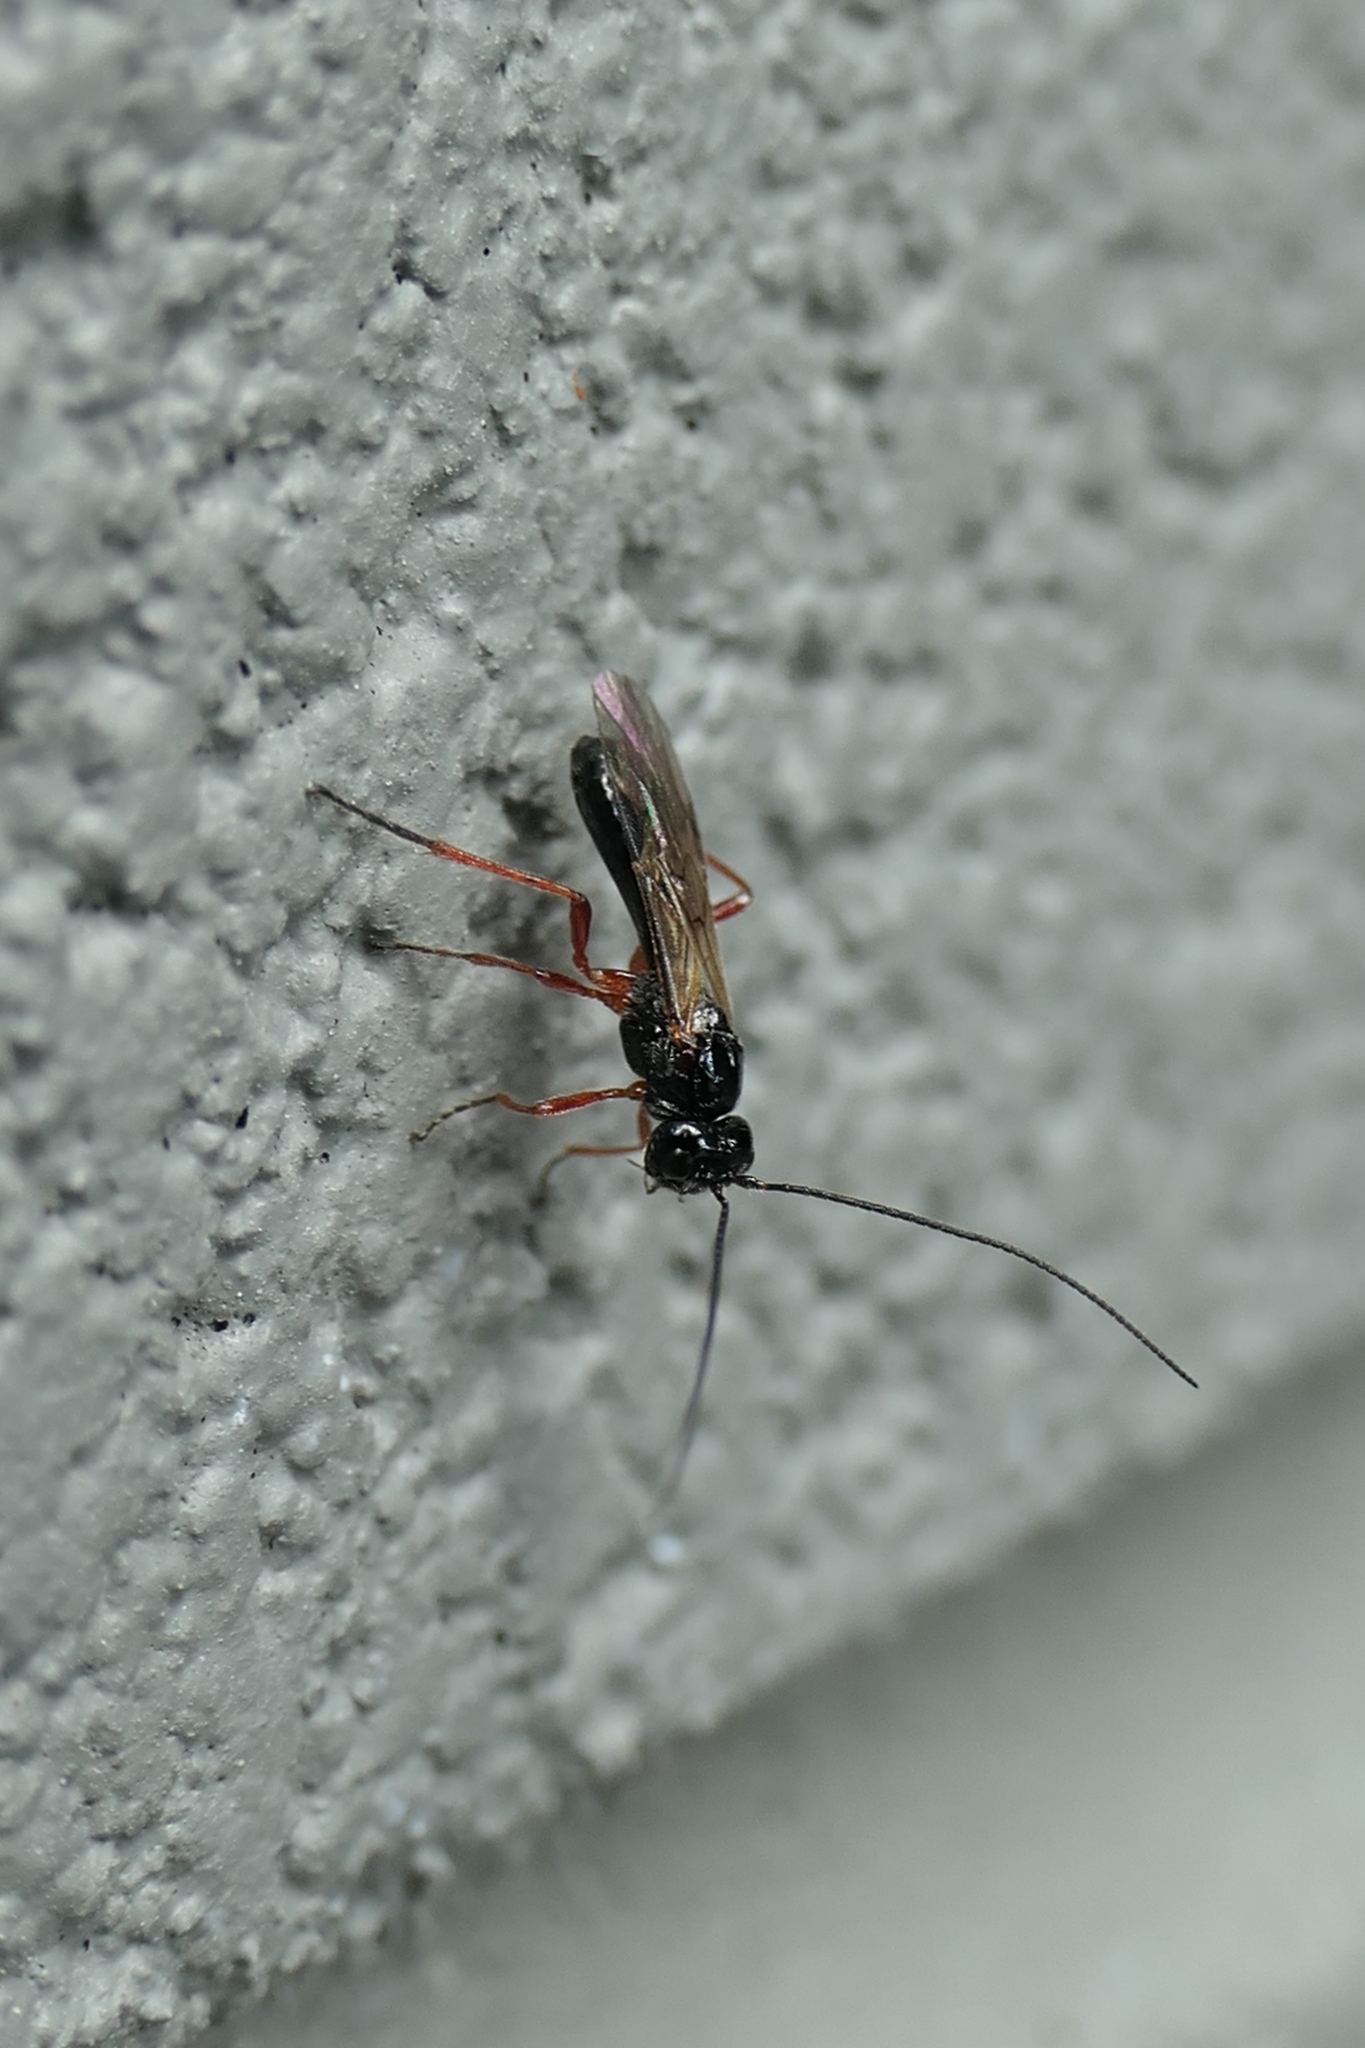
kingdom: Animalia
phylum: Arthropoda
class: Insecta
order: Hymenoptera
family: Braconidae
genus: Alysia
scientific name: Alysia manducator
